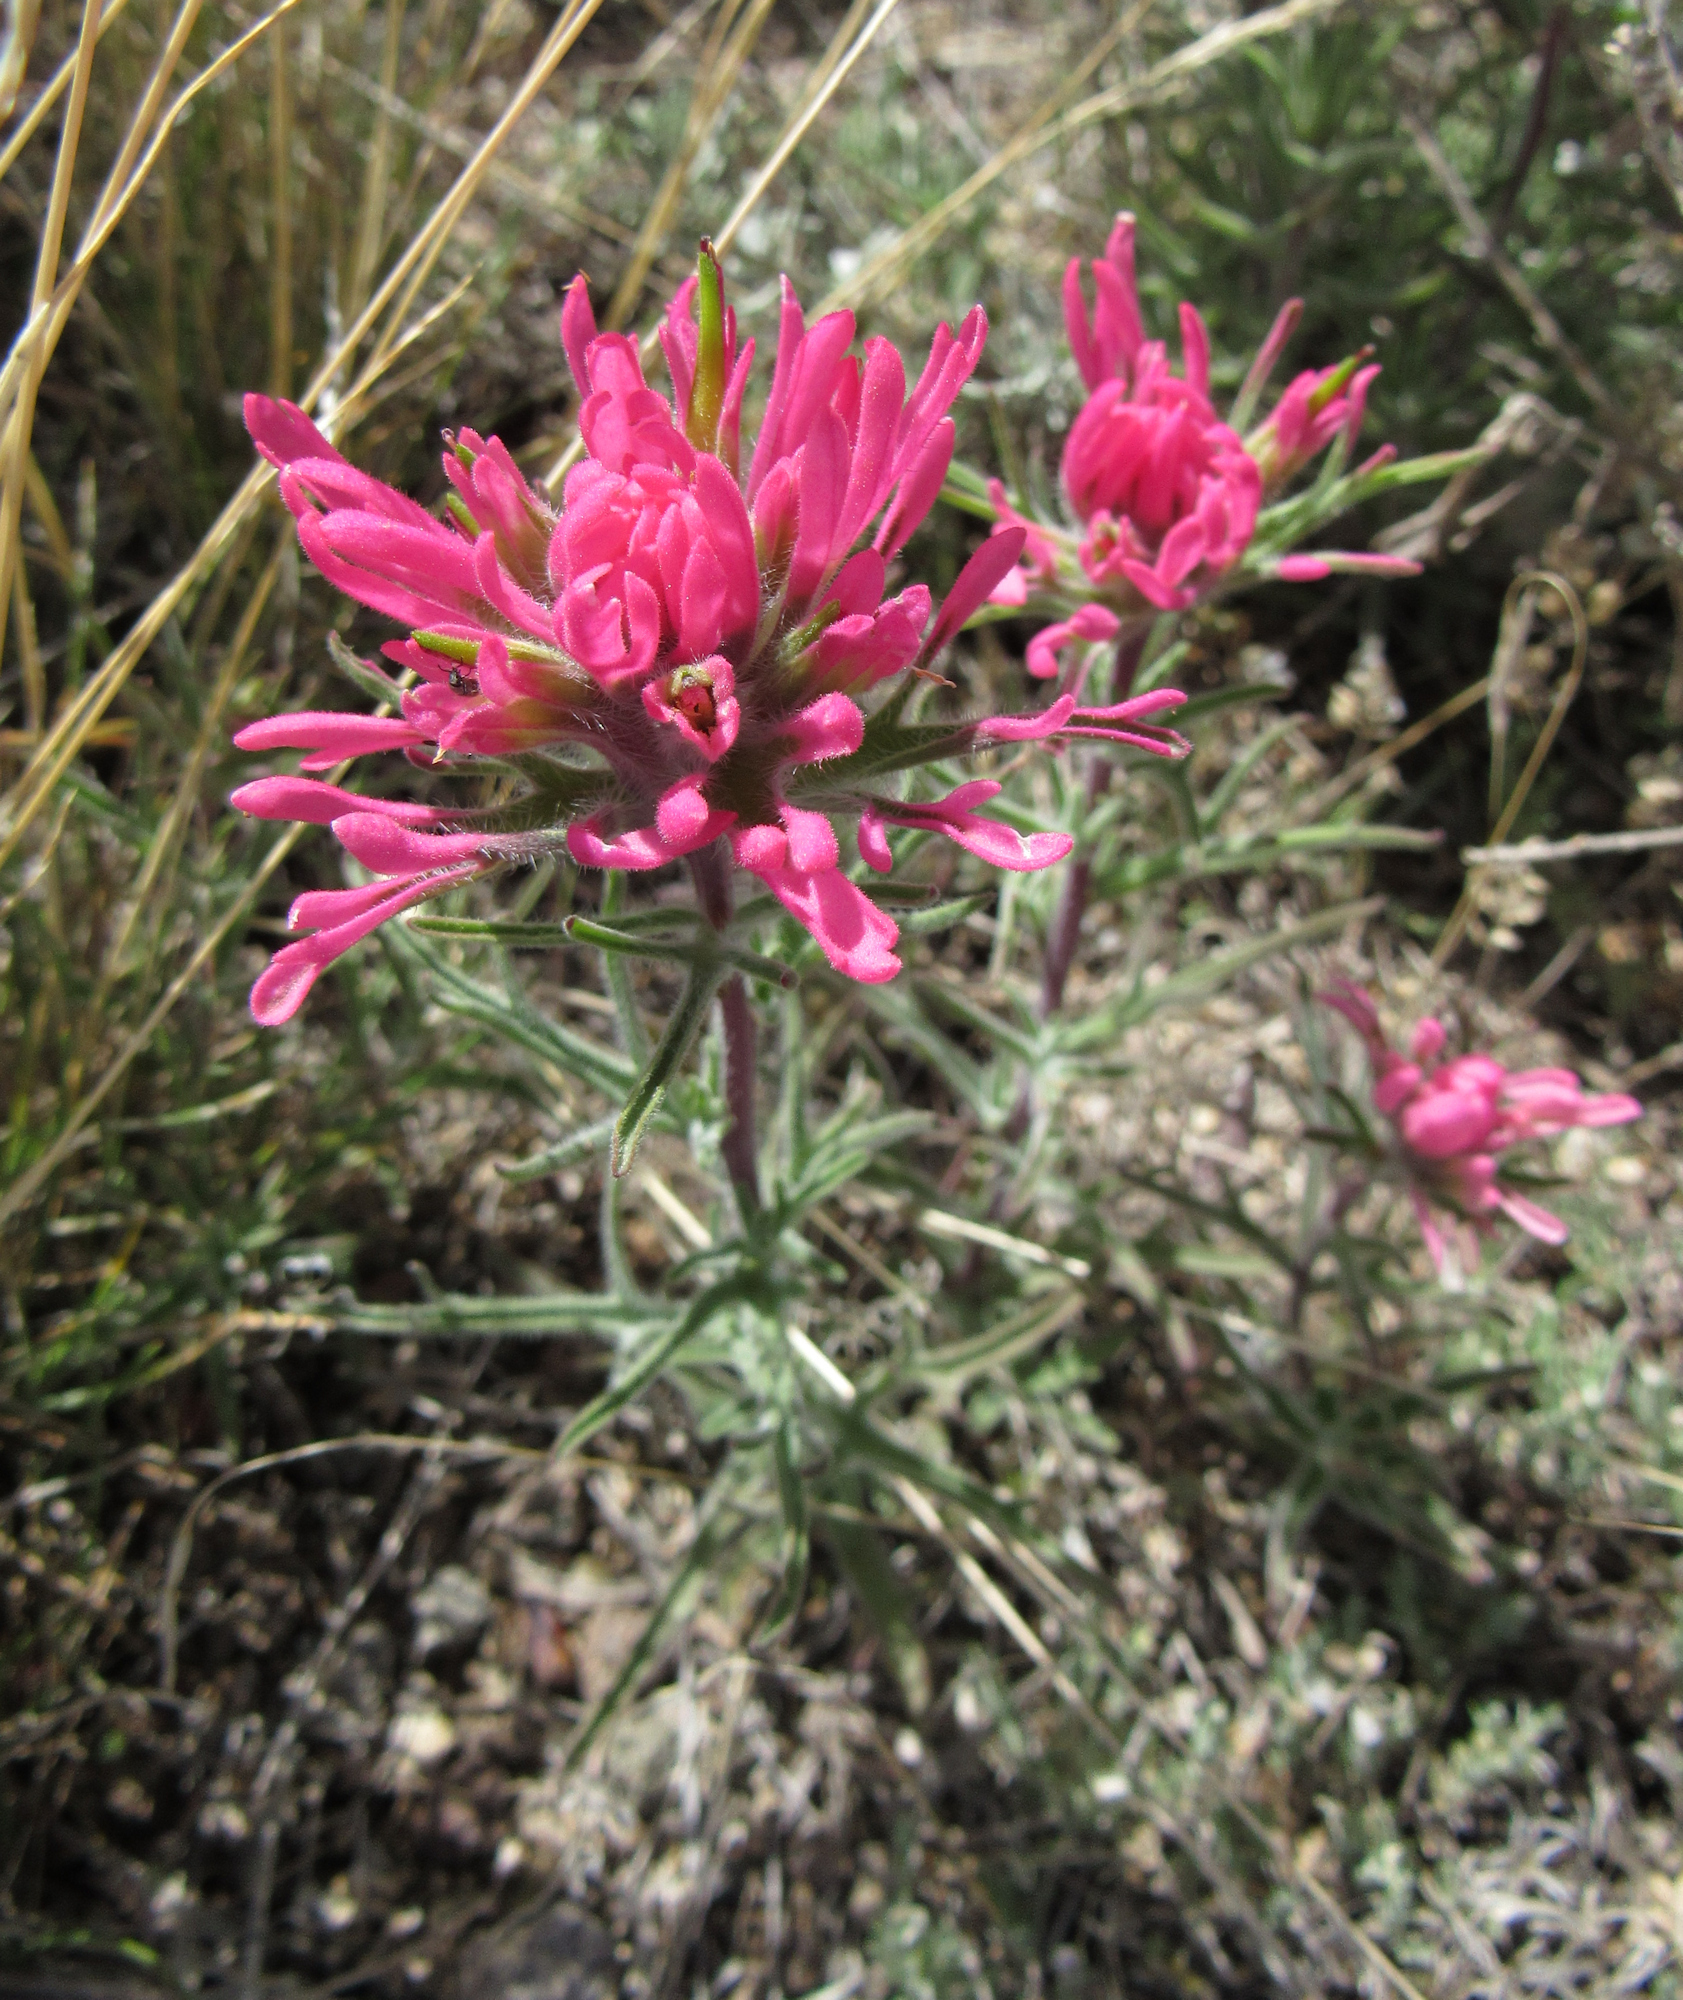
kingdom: Plantae
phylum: Tracheophyta
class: Magnoliopsida
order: Lamiales
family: Orobanchaceae
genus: Castilleja
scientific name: Castilleja angustifolia
